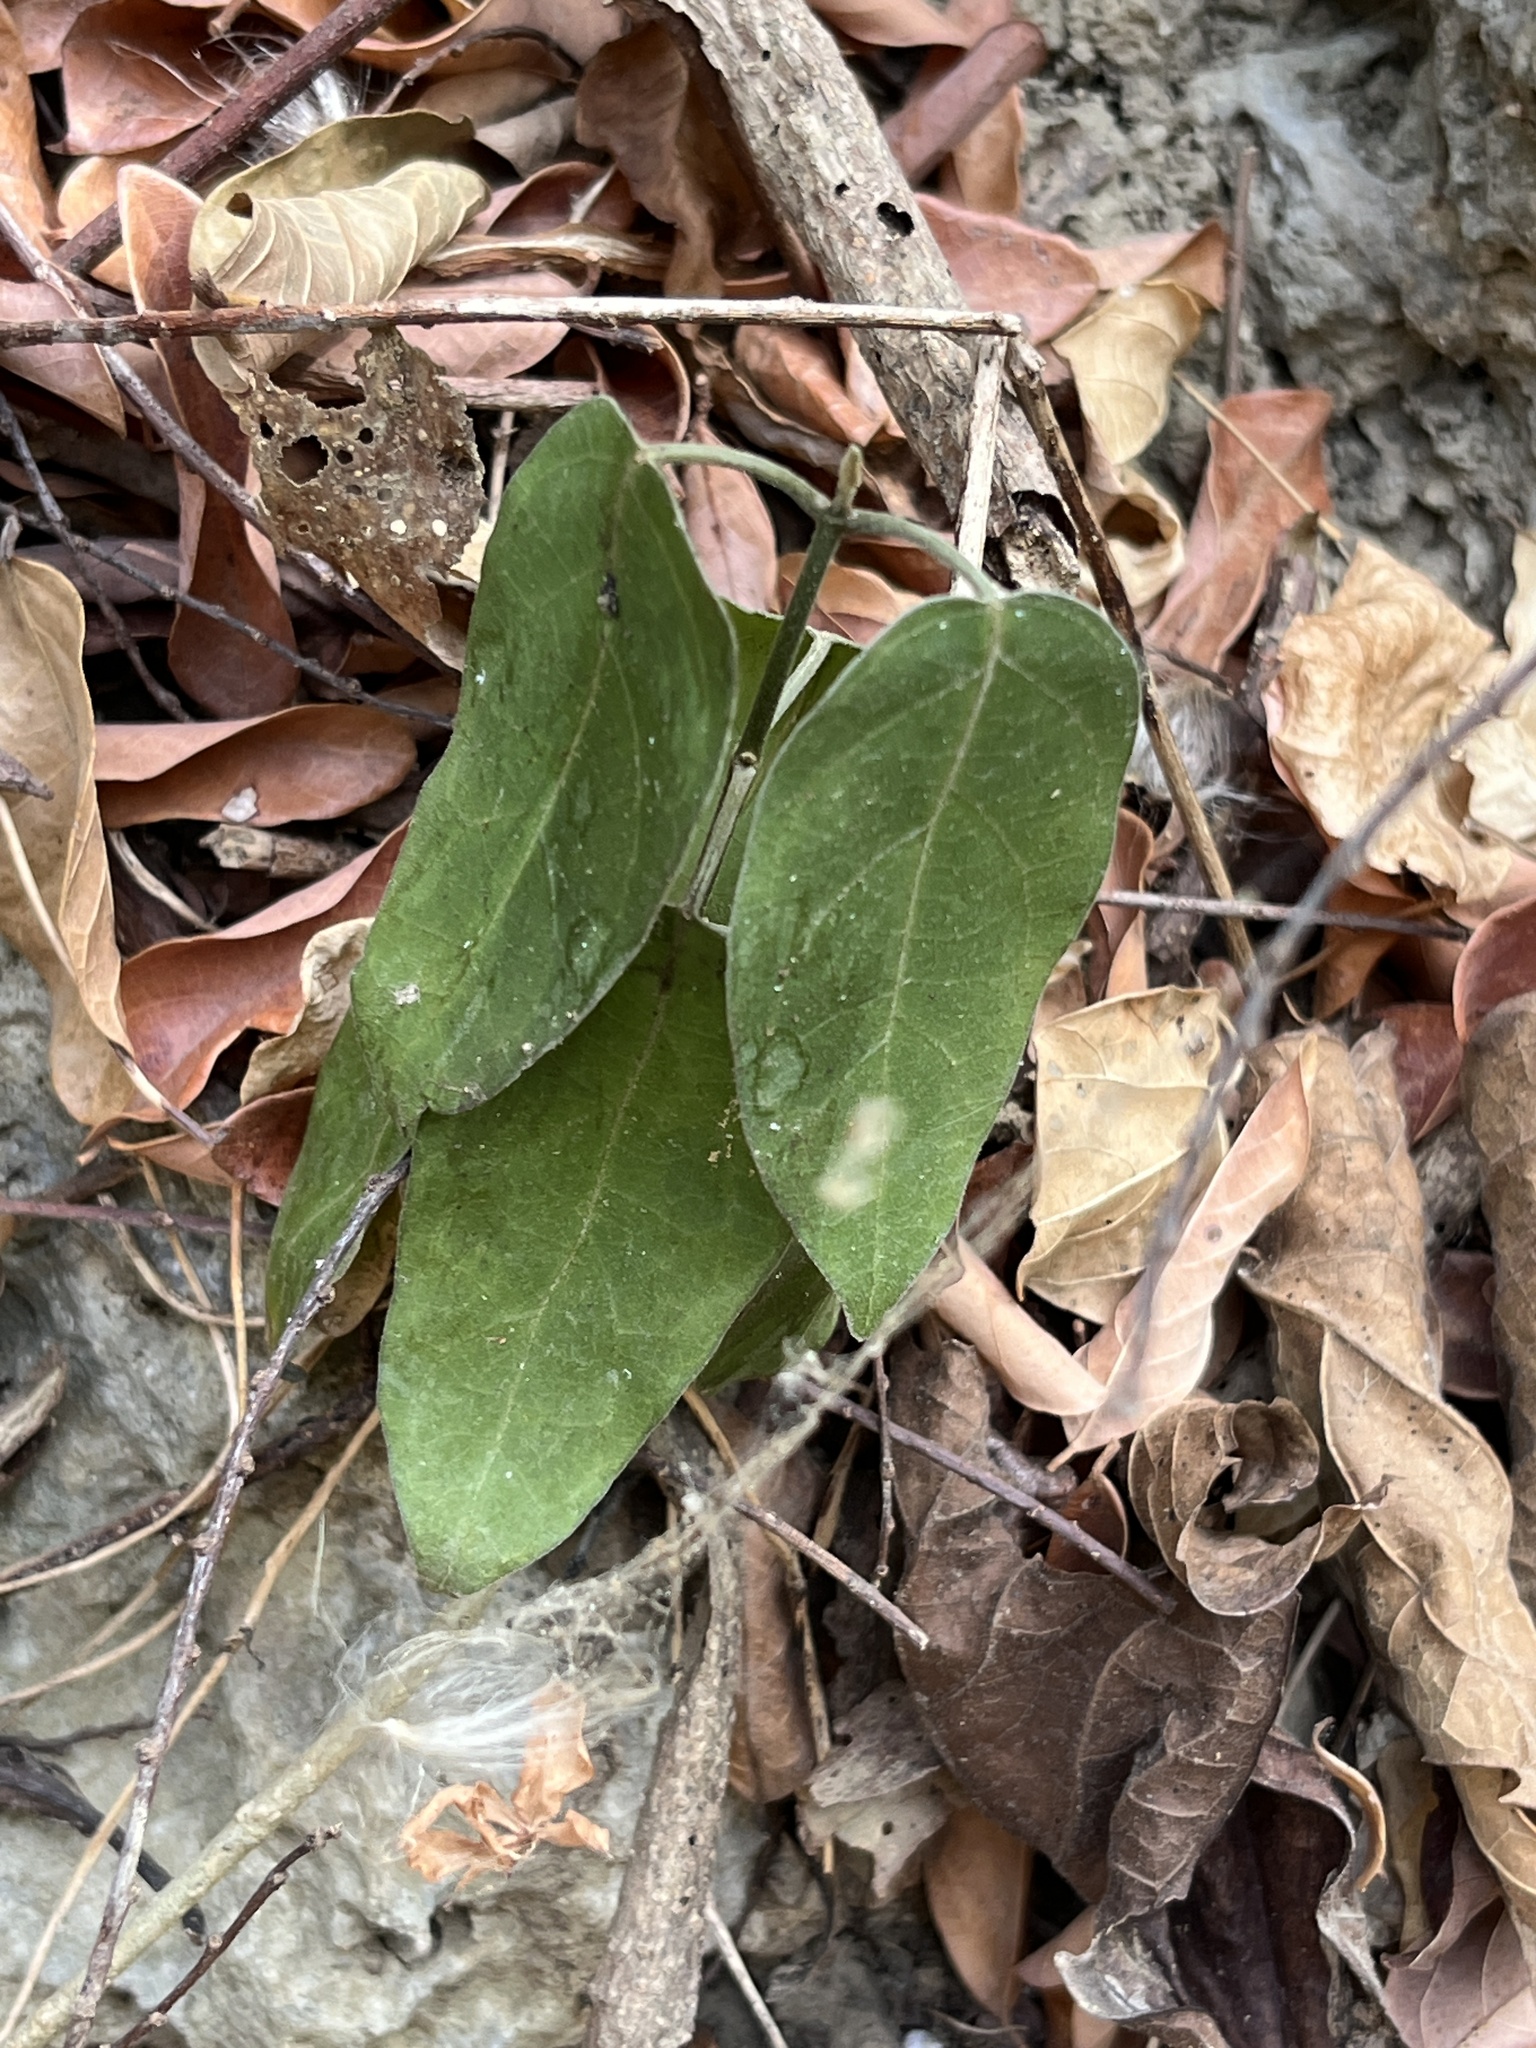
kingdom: Plantae
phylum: Tracheophyta
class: Magnoliopsida
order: Gentianales
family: Apocynaceae
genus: Marsdenia
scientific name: Marsdenia tinctoria
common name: Climbing-indigo
